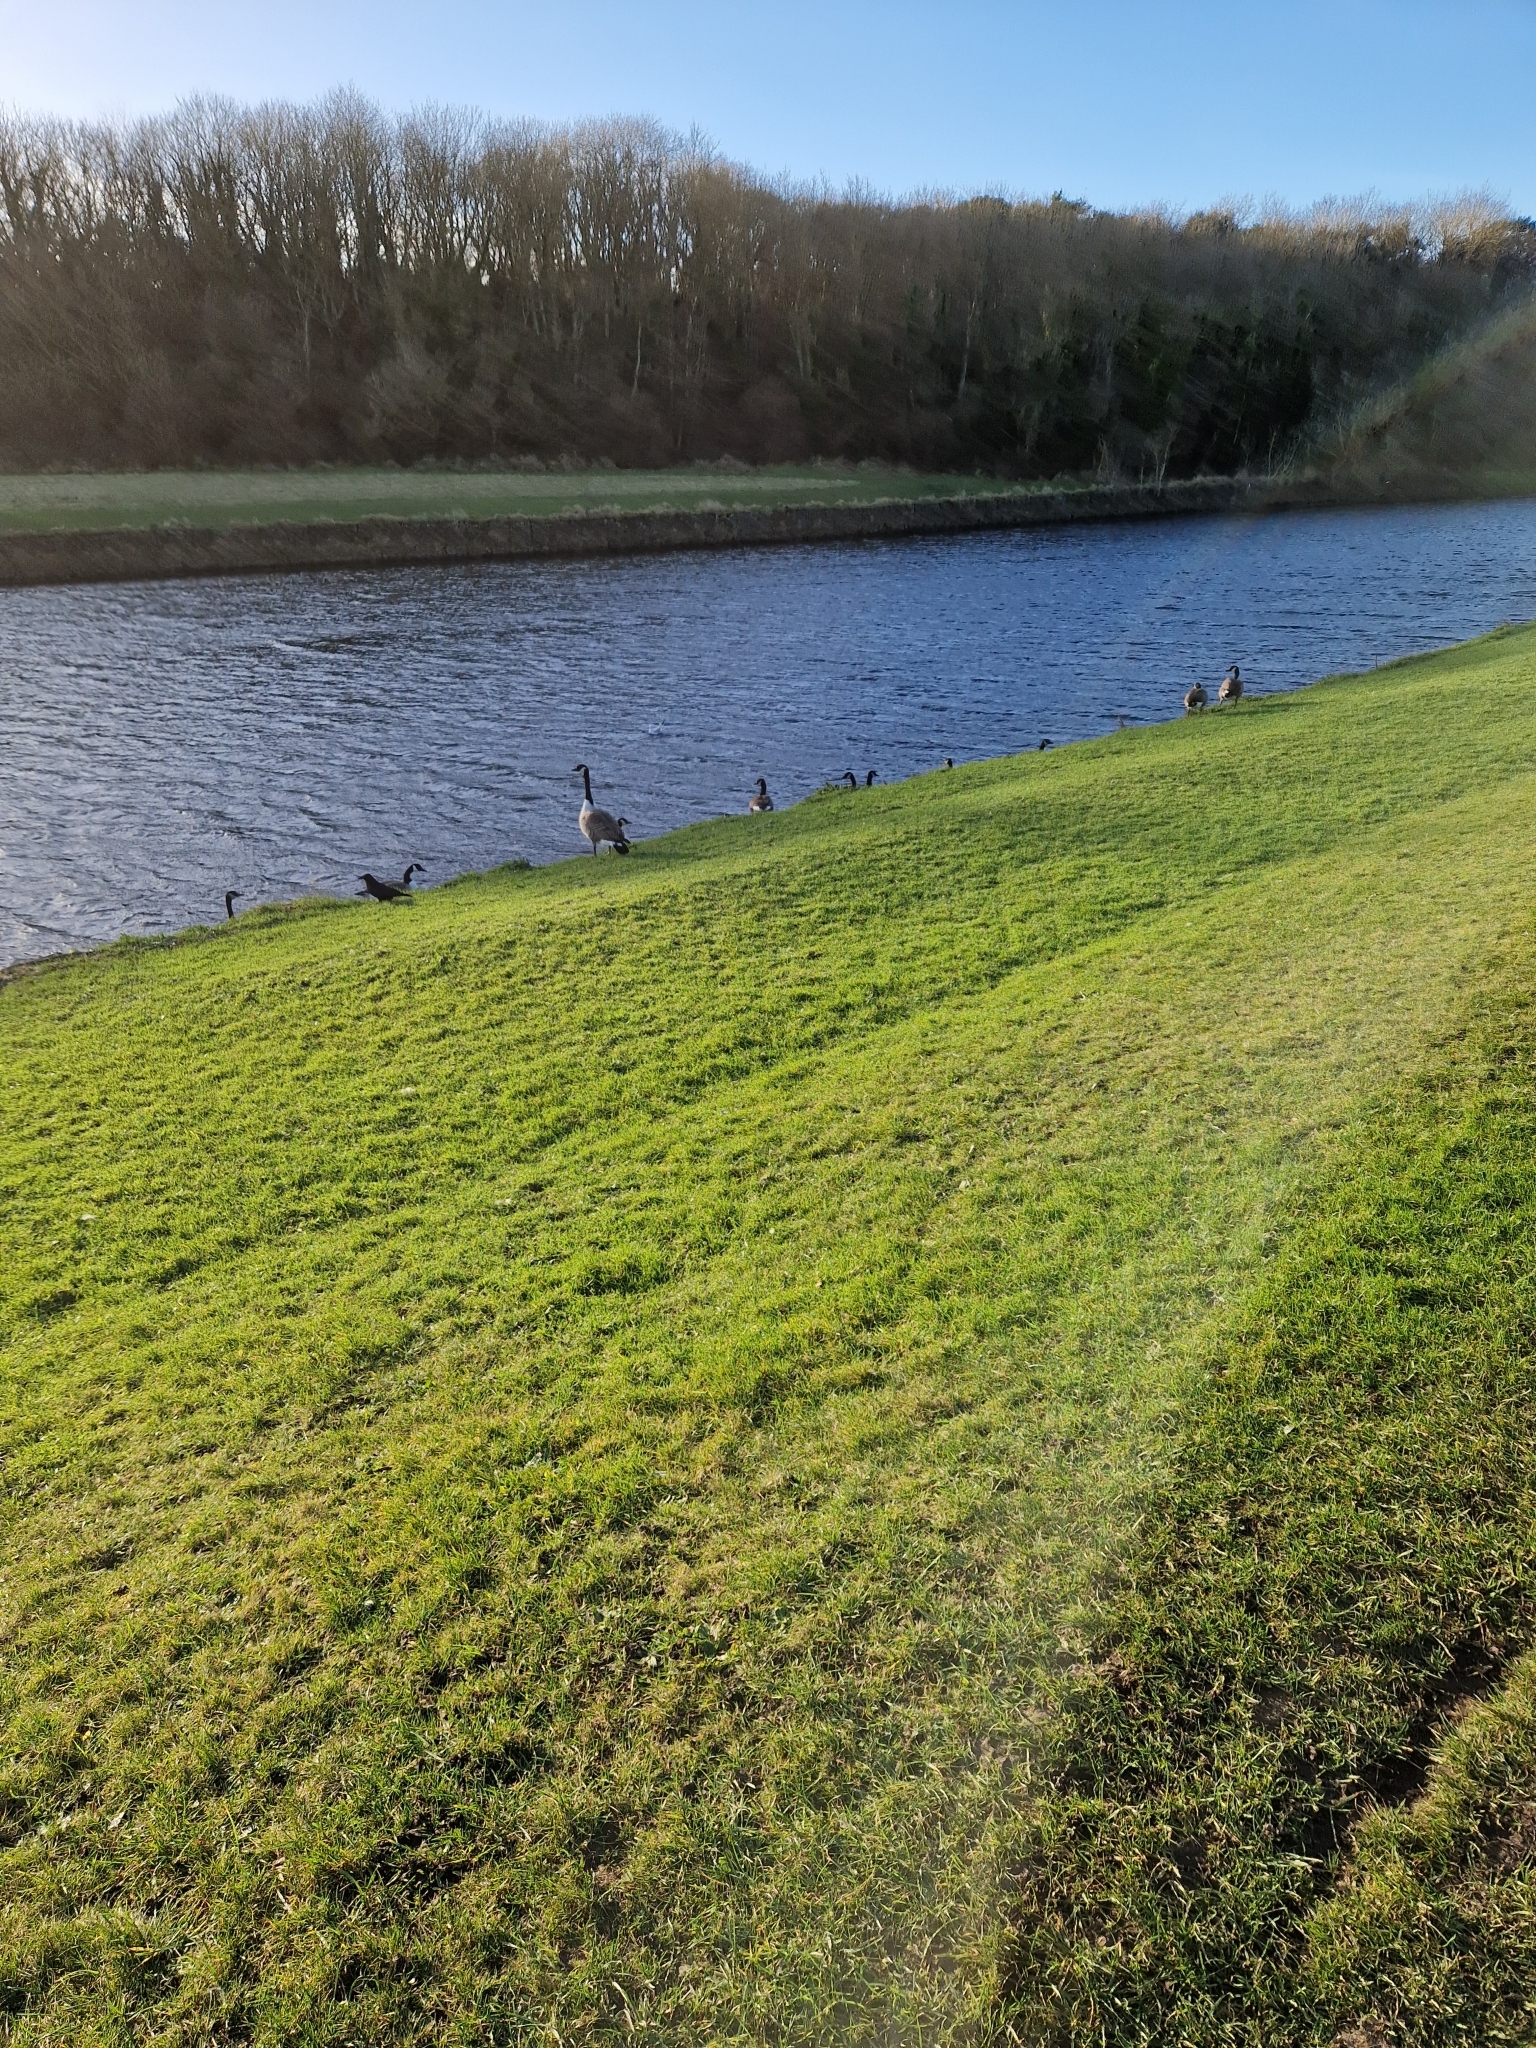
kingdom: Animalia
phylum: Chordata
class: Aves
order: Anseriformes
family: Anatidae
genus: Branta
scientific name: Branta canadensis
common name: Canada goose
